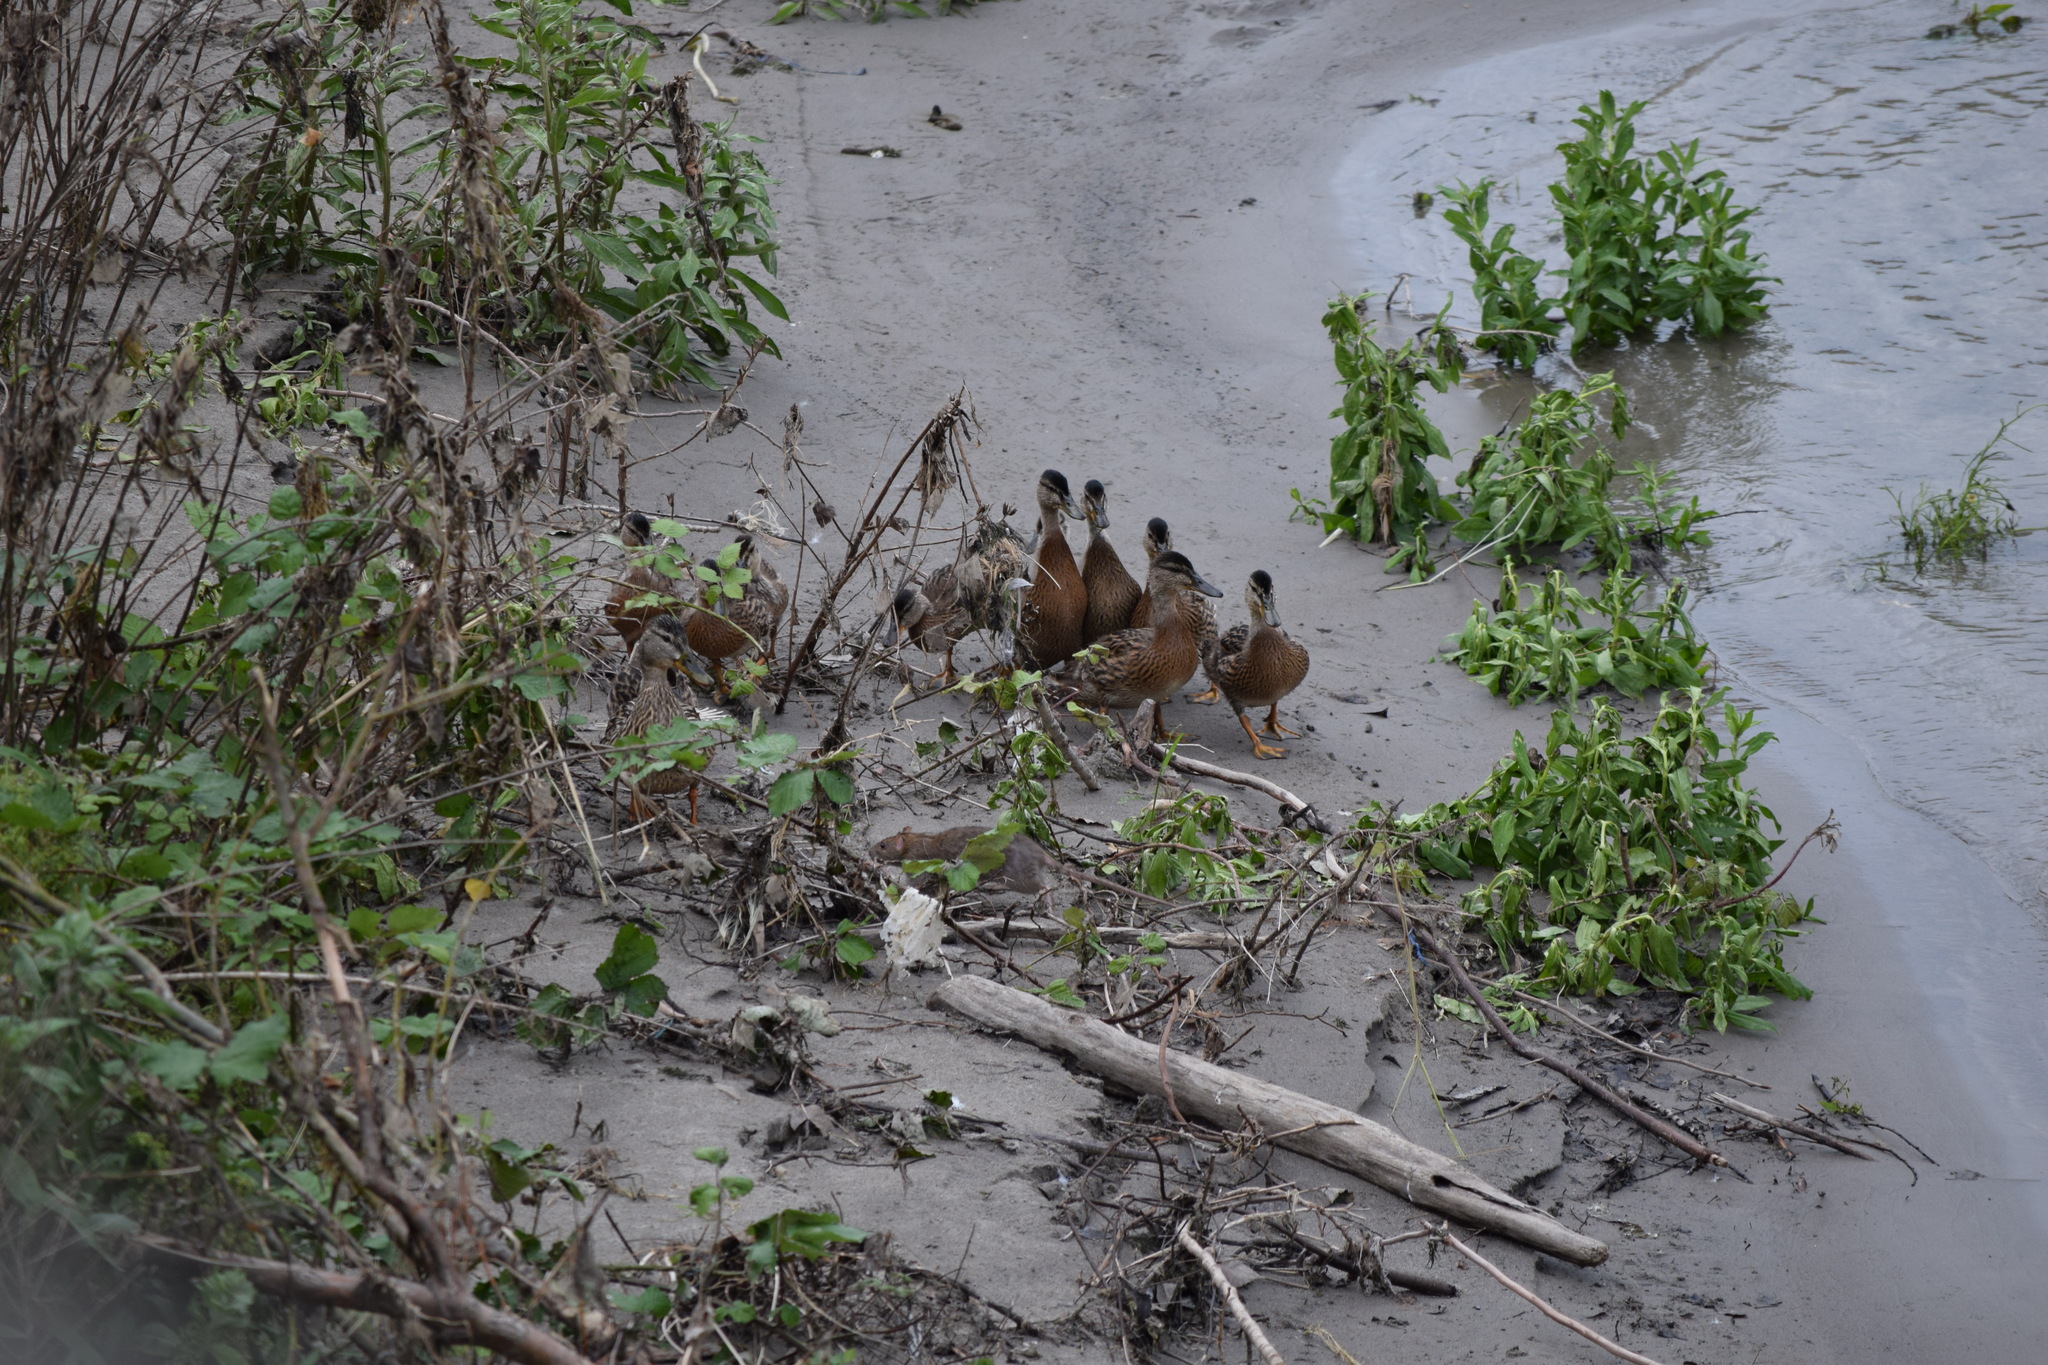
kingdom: Animalia
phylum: Chordata
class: Aves
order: Anseriformes
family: Anatidae
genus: Anas
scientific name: Anas platyrhynchos
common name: Mallard
